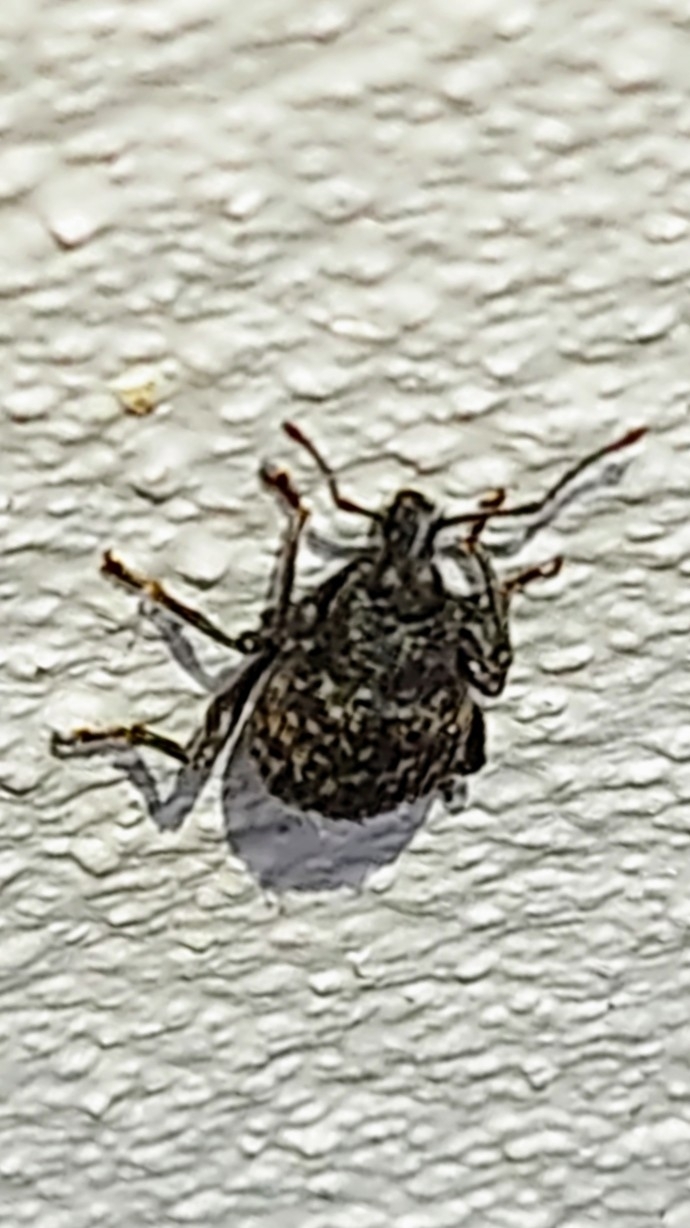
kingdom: Animalia
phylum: Arthropoda
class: Insecta
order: Coleoptera
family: Curculionidae
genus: Otiorhynchus
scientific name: Otiorhynchus sulcatus
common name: Black vine weevil
